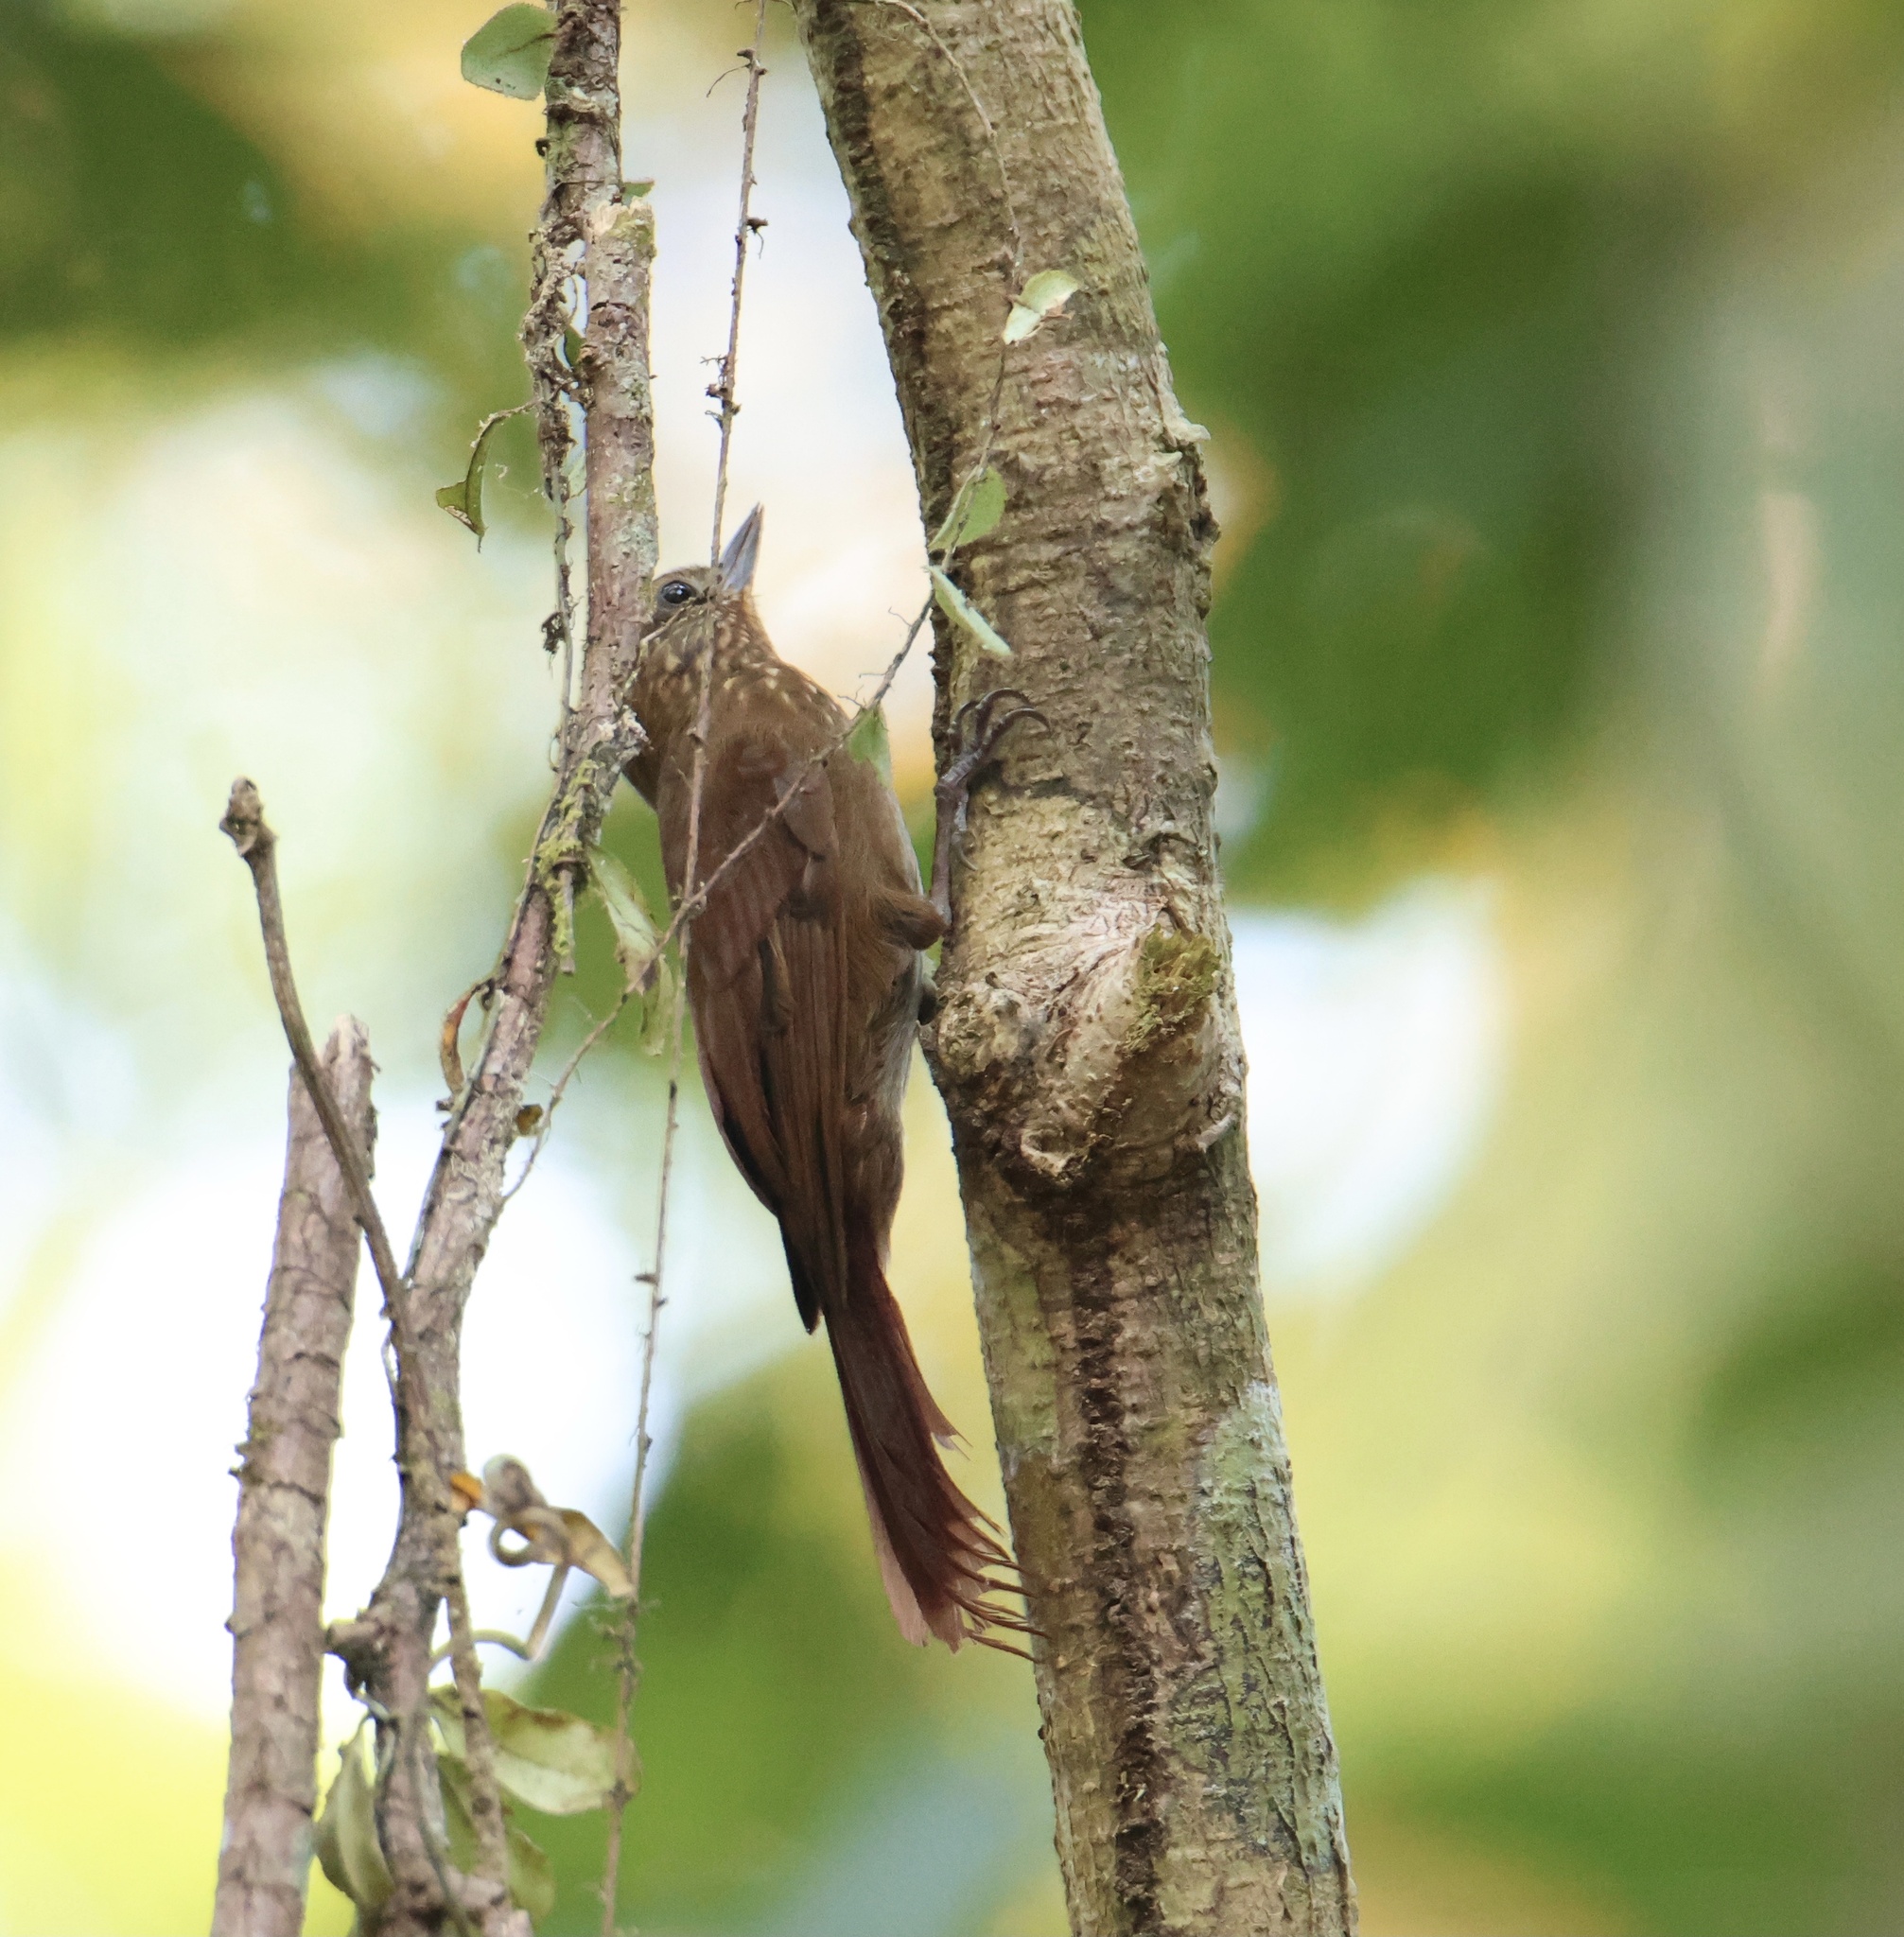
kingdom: Animalia
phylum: Chordata
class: Aves
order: Passeriformes
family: Furnariidae
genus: Glyphorynchus
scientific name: Glyphorynchus spirurus
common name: Wedge-billed woodcreeper
